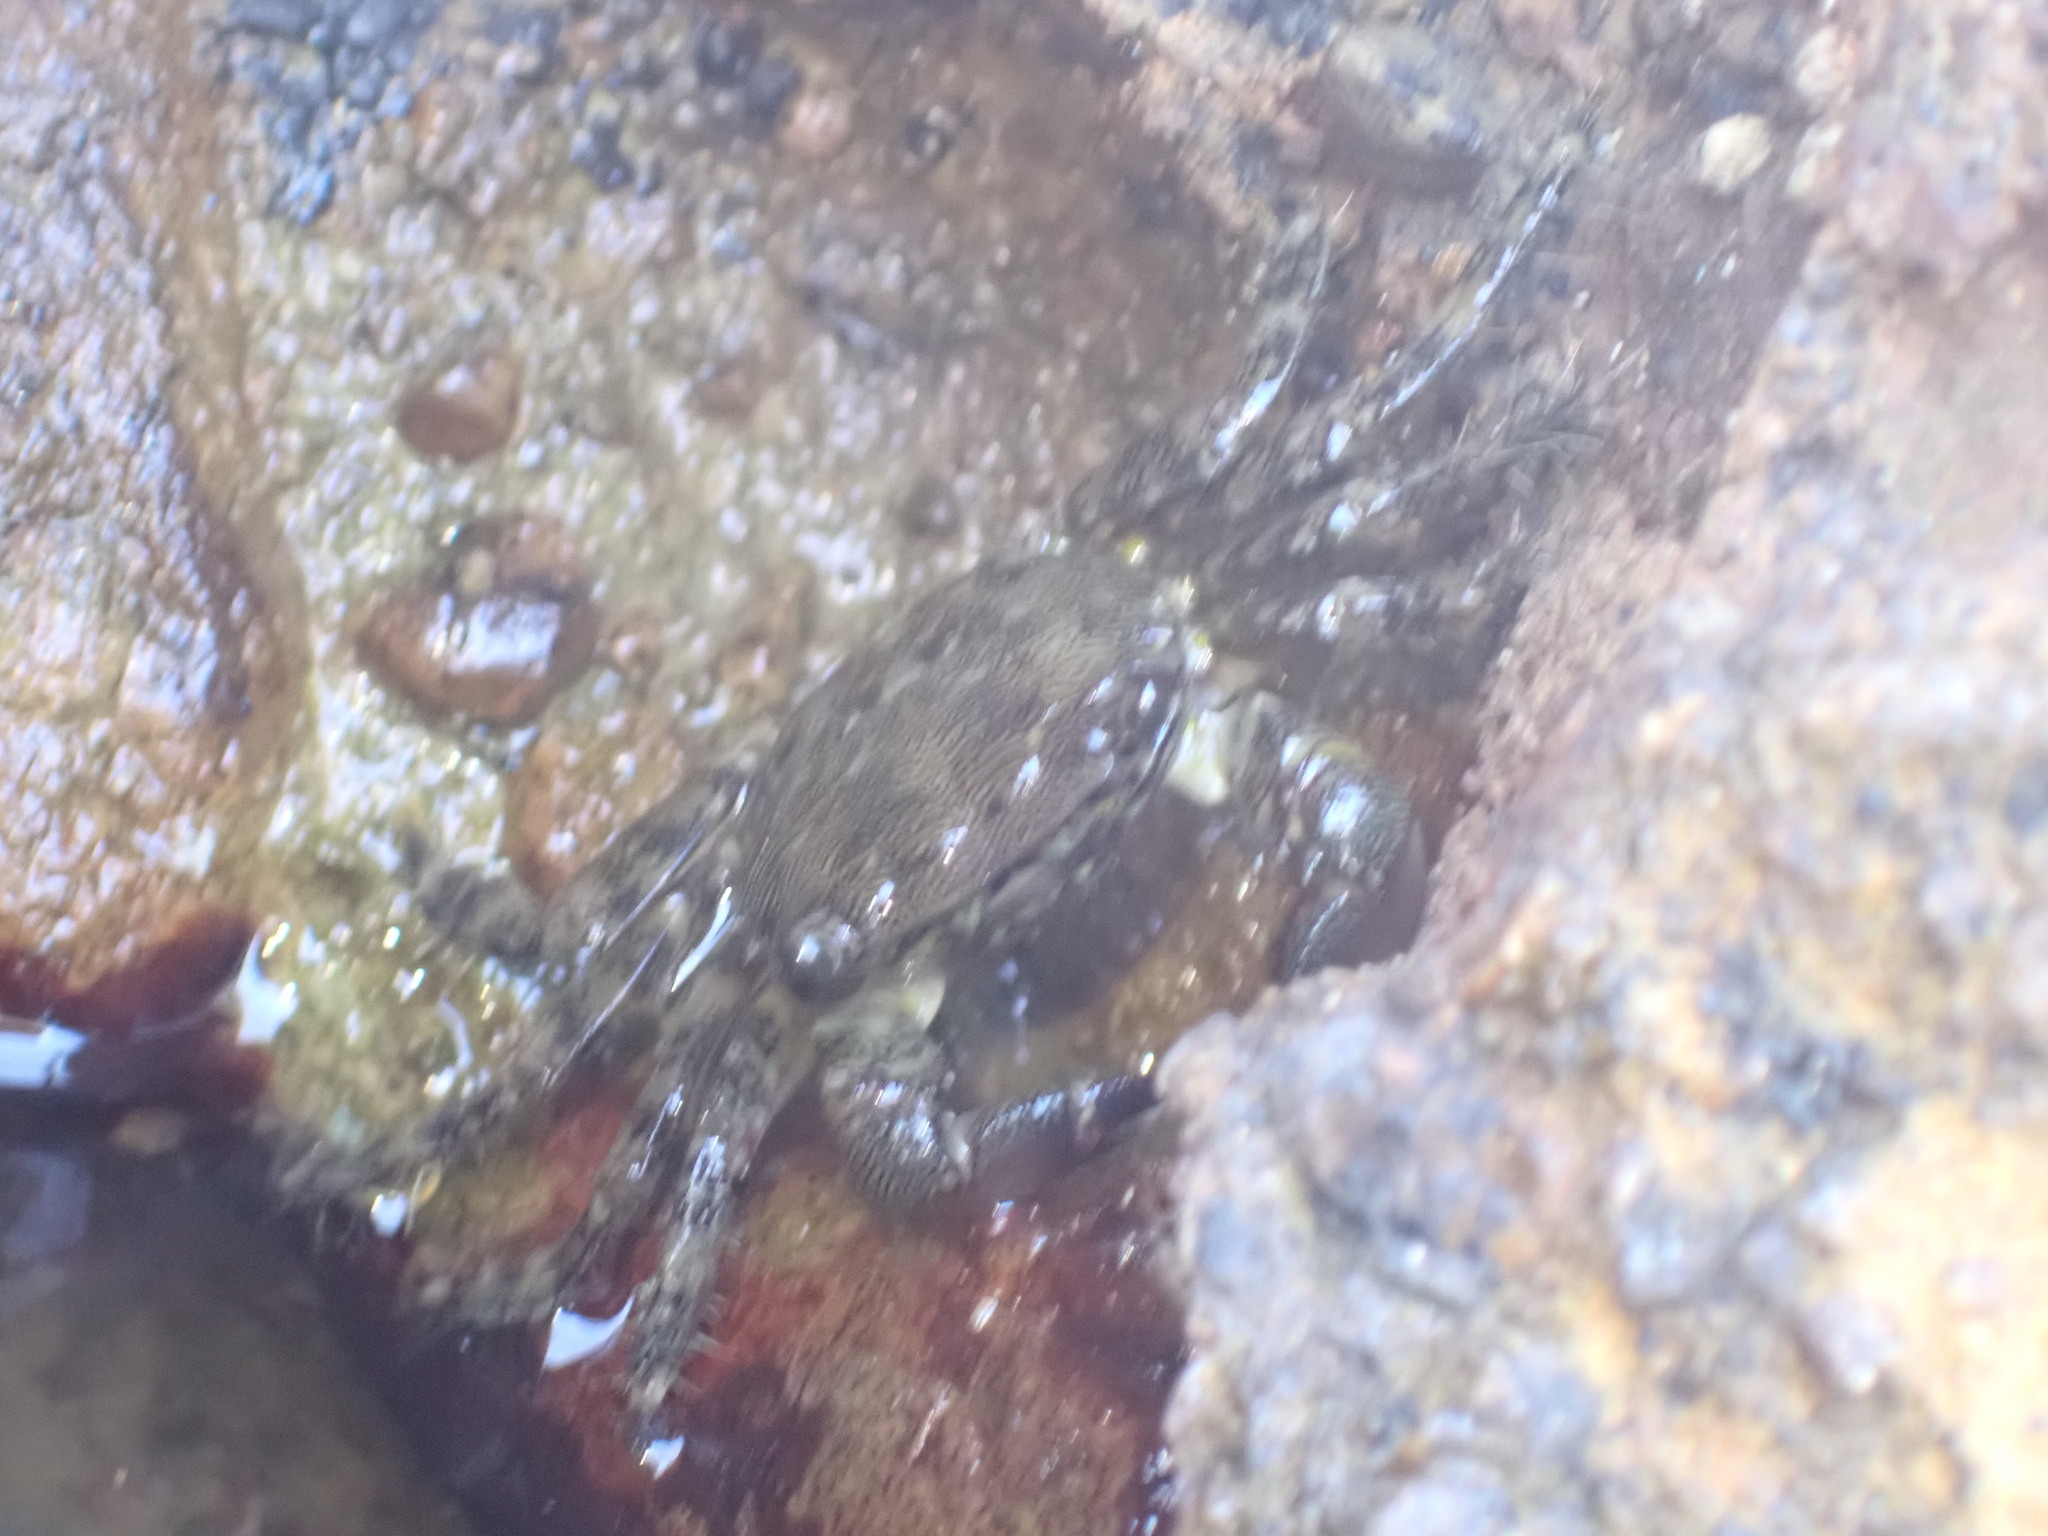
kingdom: Animalia
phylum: Arthropoda
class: Malacostraca
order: Decapoda
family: Grapsidae
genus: Pachygrapsus
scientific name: Pachygrapsus marmoratus
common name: Marbled rock crab
